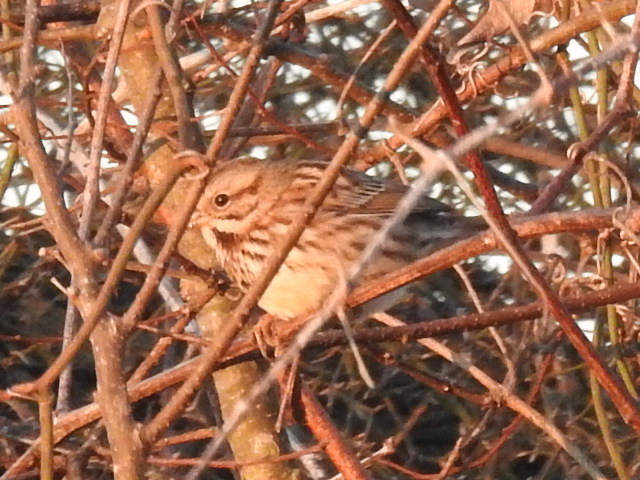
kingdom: Animalia
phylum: Chordata
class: Aves
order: Passeriformes
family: Passerellidae
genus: Melospiza
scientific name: Melospiza melodia
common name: Song sparrow
